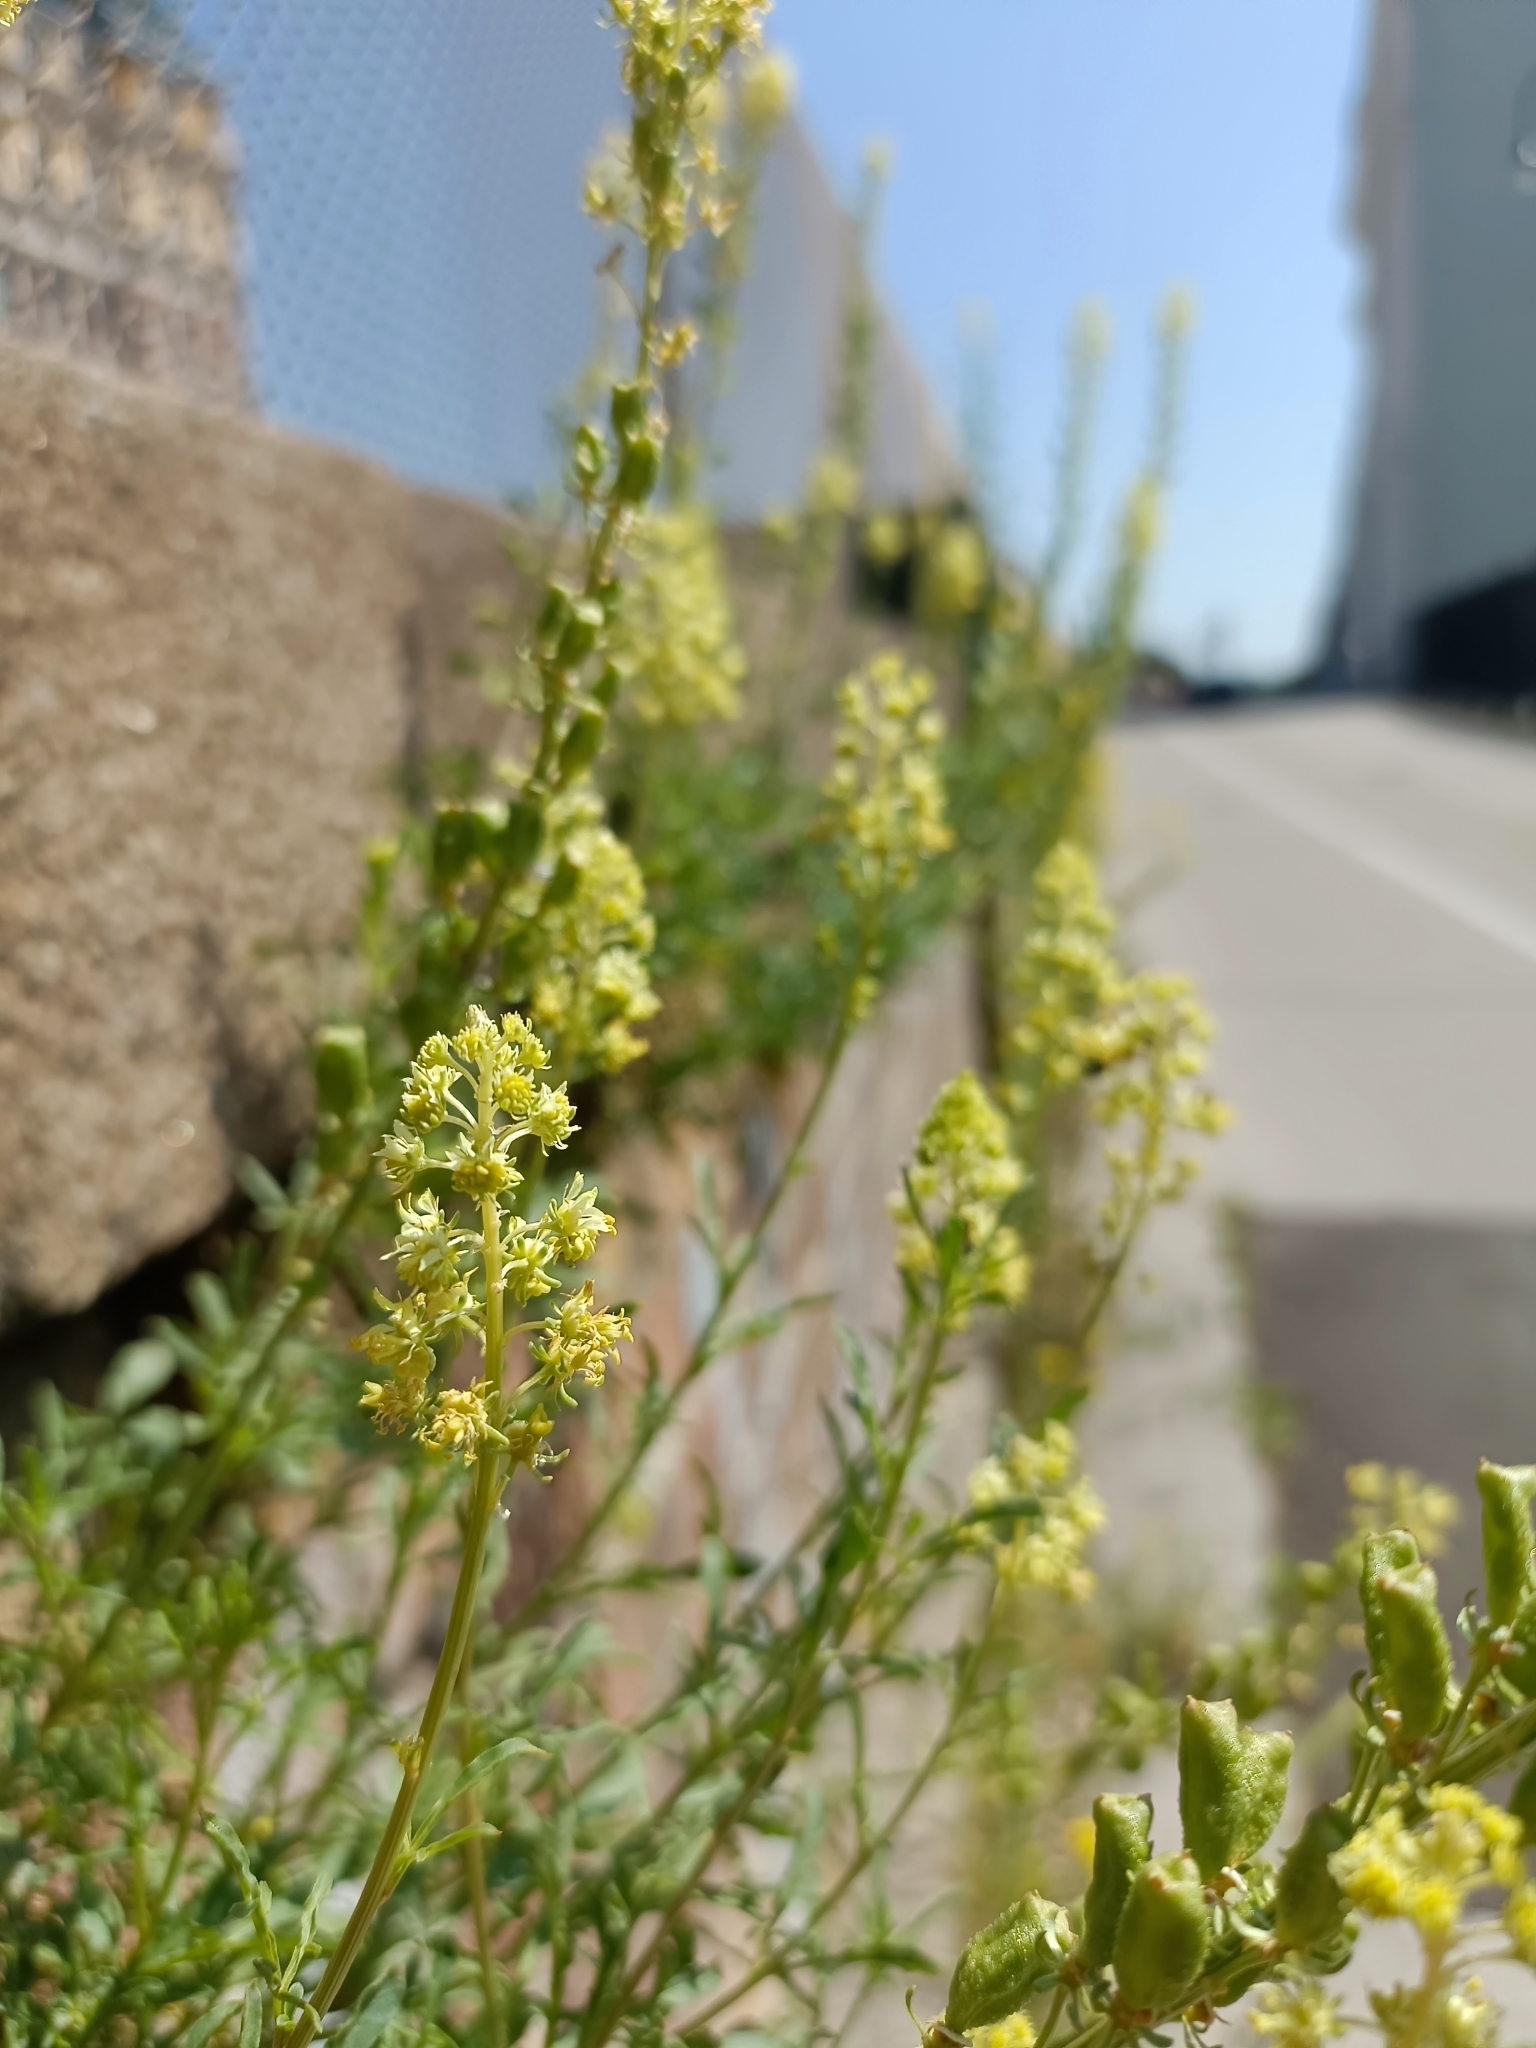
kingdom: Plantae
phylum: Tracheophyta
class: Magnoliopsida
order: Brassicales
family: Resedaceae
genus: Reseda
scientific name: Reseda lutea
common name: Wild mignonette
